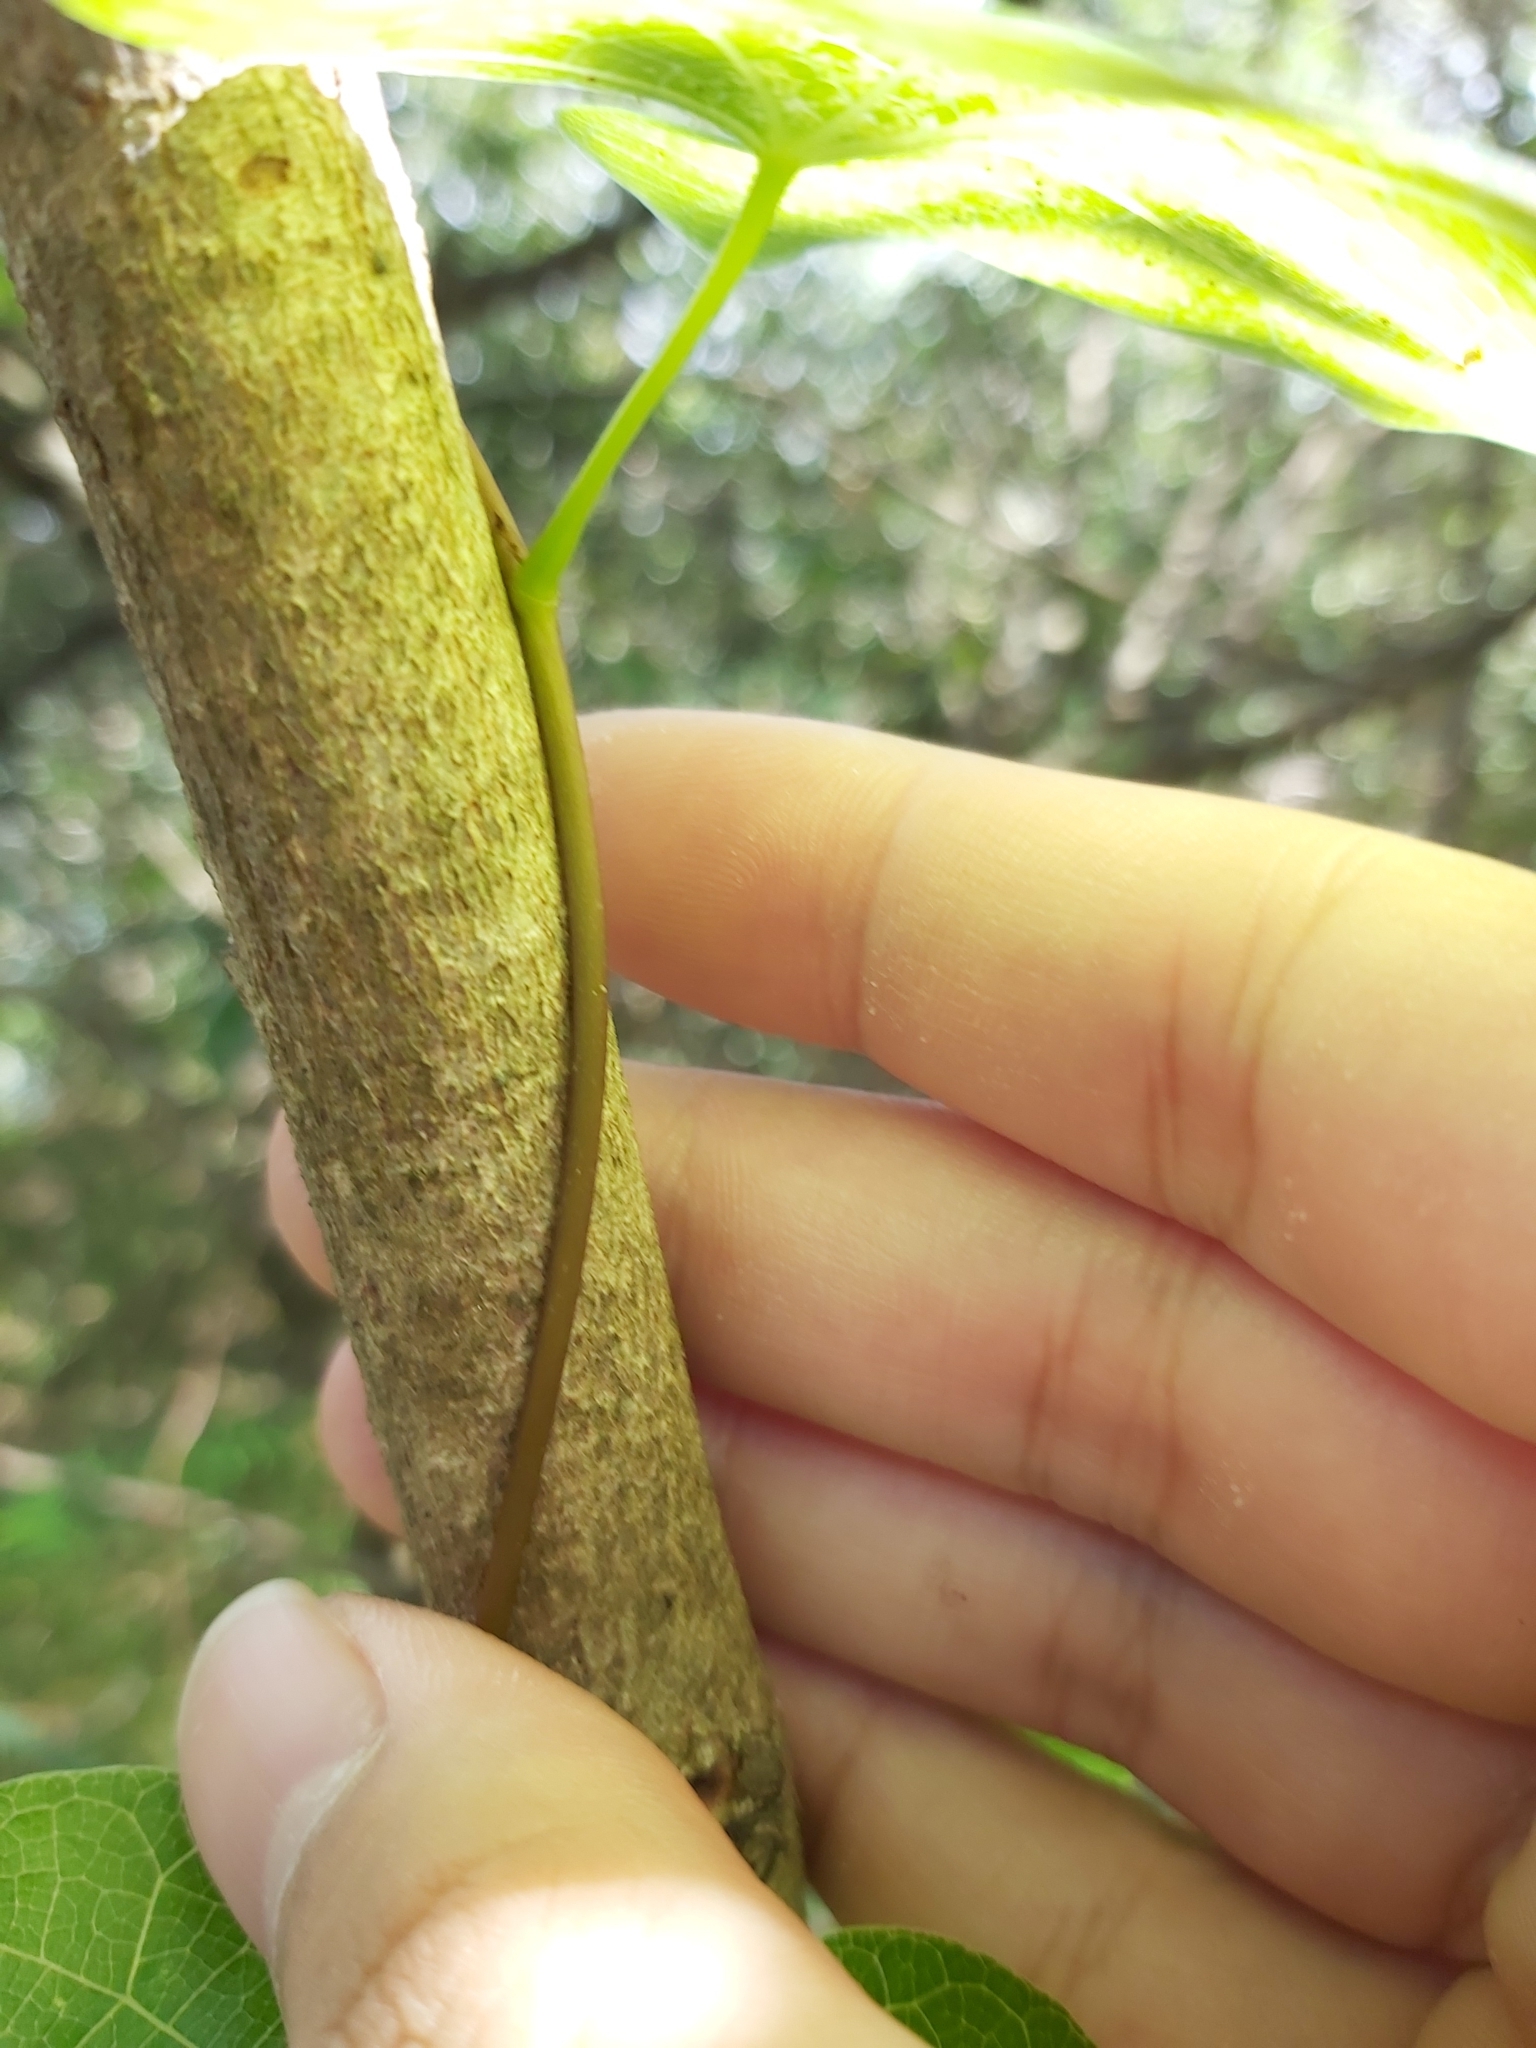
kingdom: Plantae
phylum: Tracheophyta
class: Magnoliopsida
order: Ranunculales
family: Menispermaceae
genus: Sarcopetalum
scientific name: Sarcopetalum harveyanum
